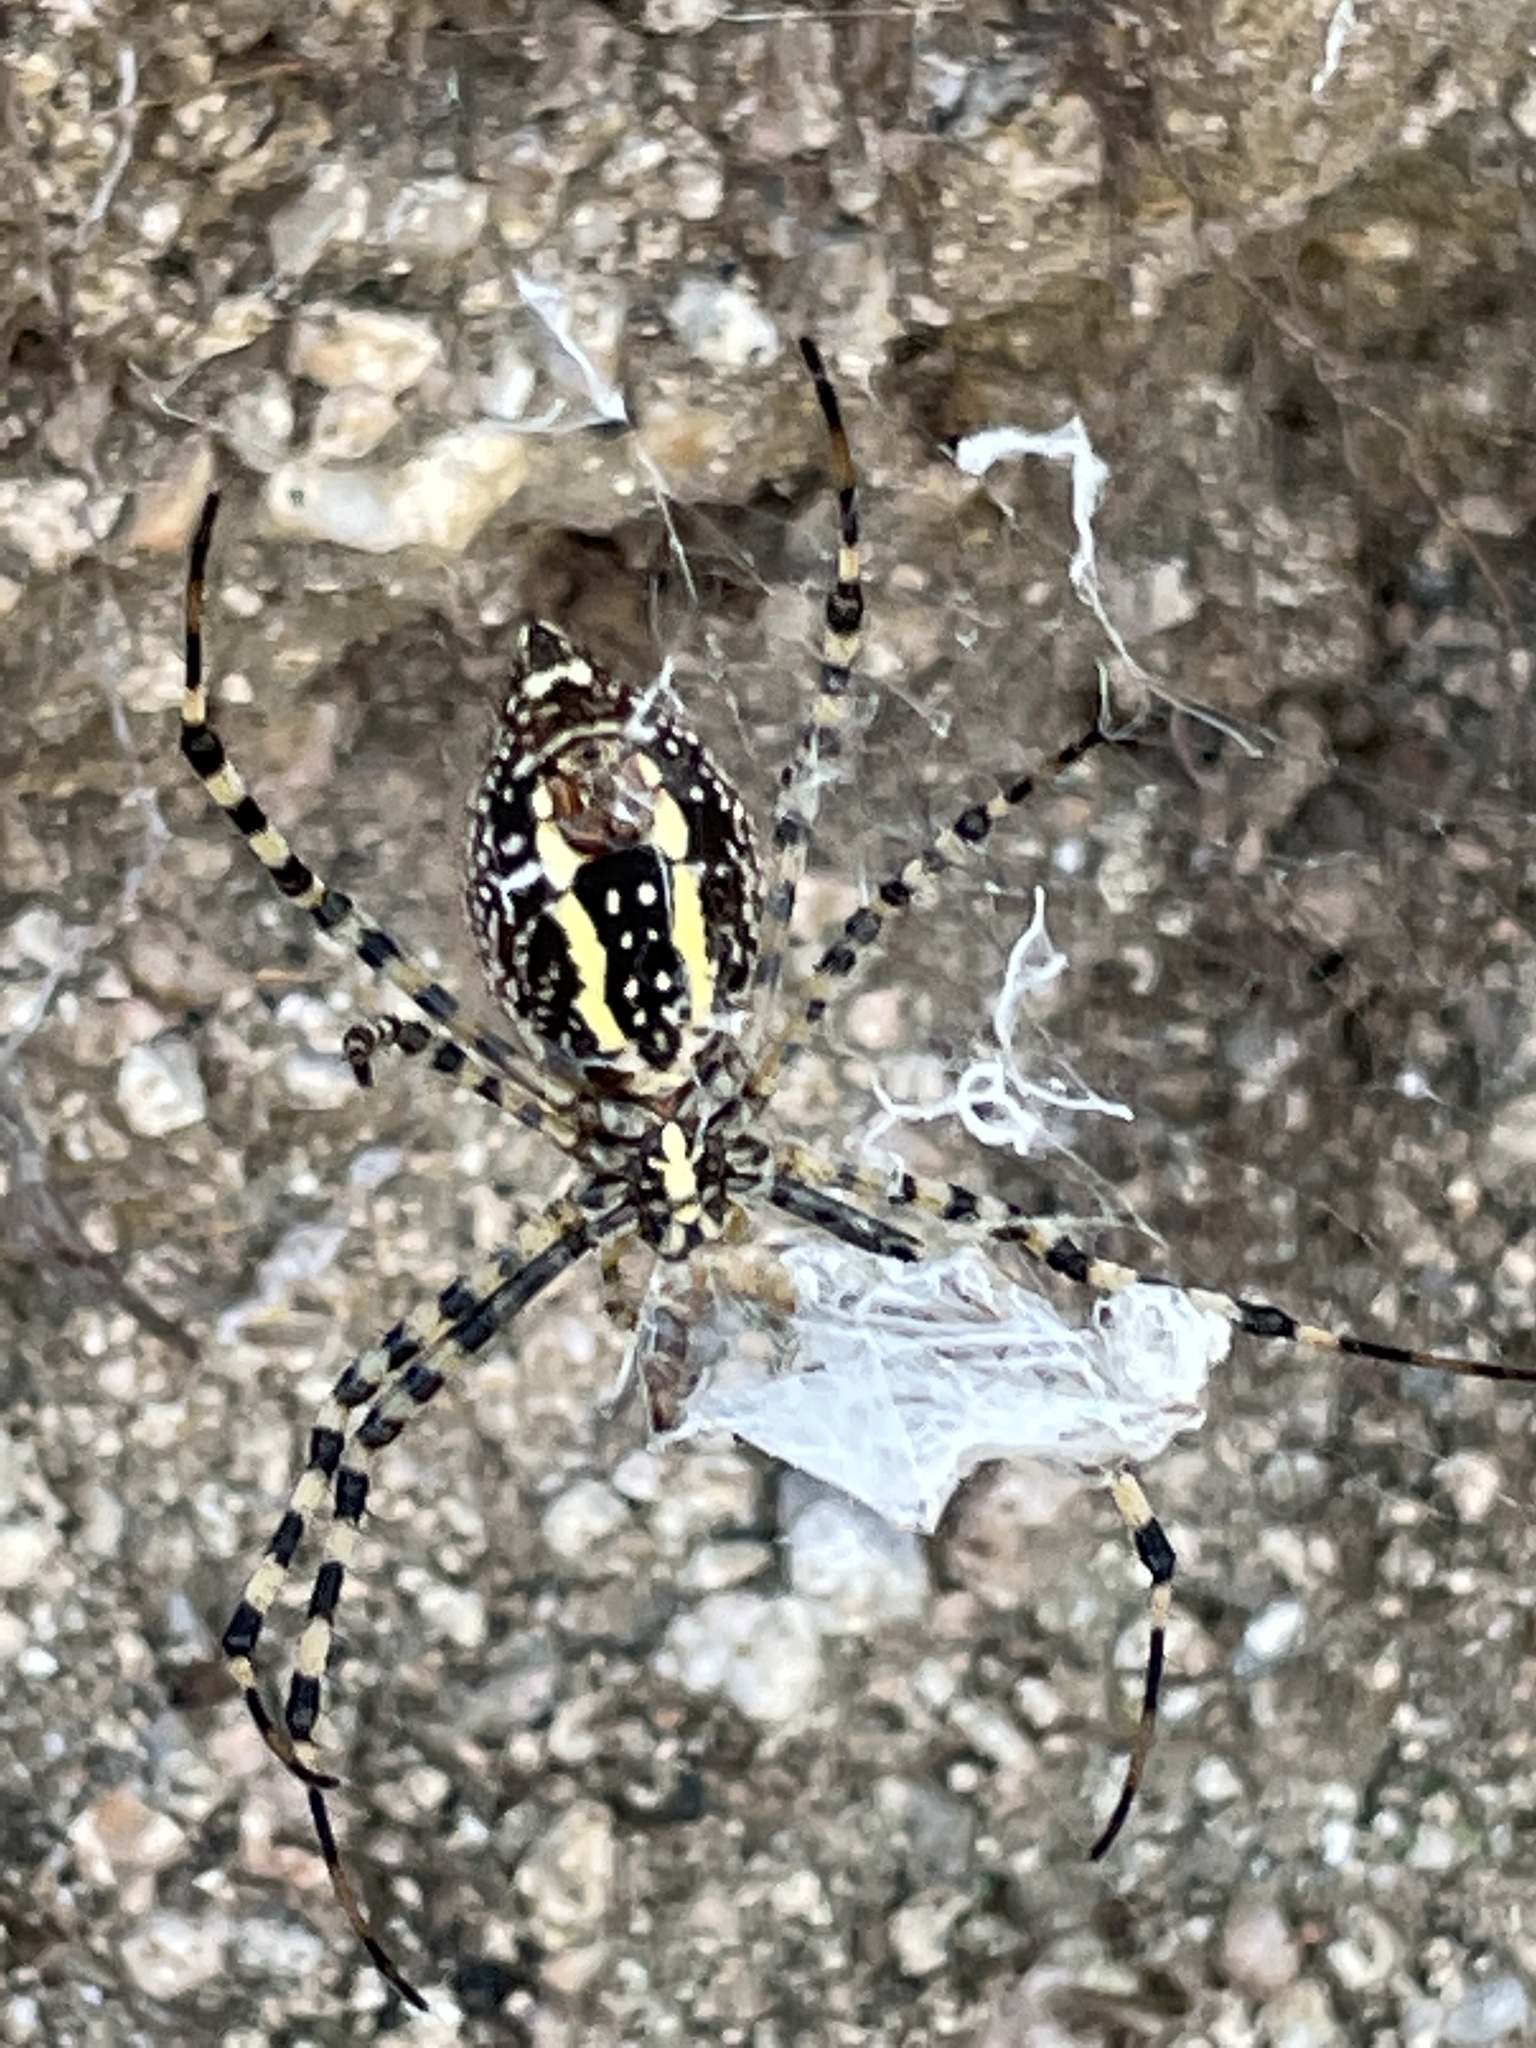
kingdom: Animalia
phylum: Arthropoda
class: Arachnida
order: Araneae
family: Araneidae
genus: Argiope
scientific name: Argiope trifasciata
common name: Banded garden spider
